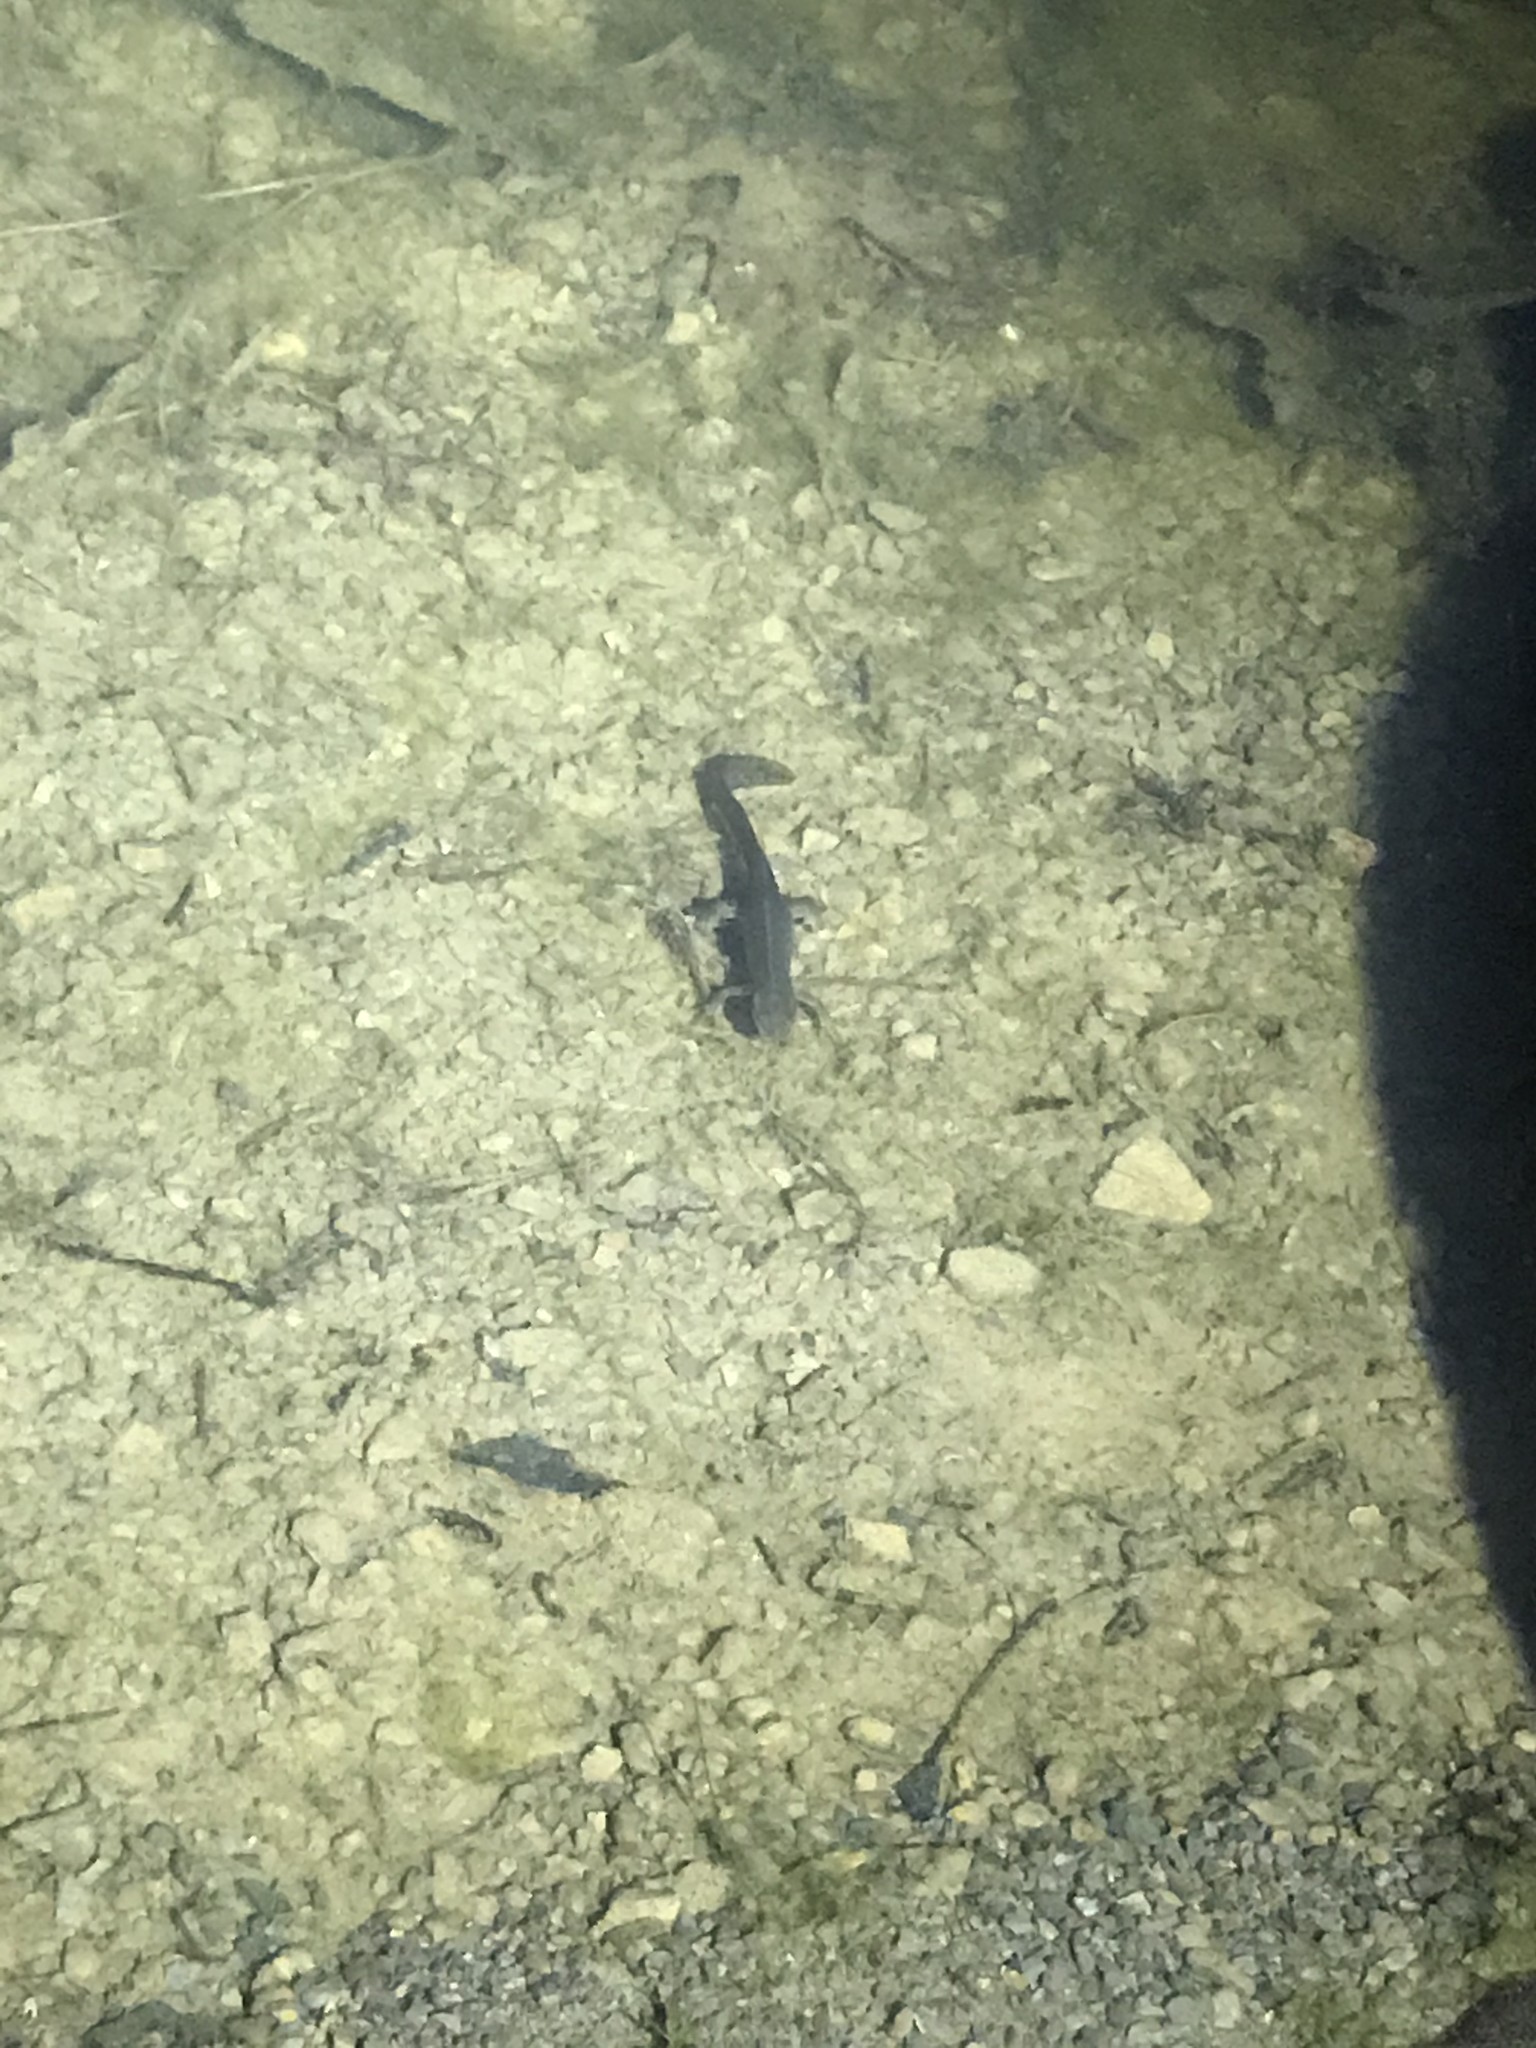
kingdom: Animalia
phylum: Chordata
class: Amphibia
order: Caudata
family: Salamandridae
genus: Notophthalmus
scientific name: Notophthalmus viridescens
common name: Eastern newt
